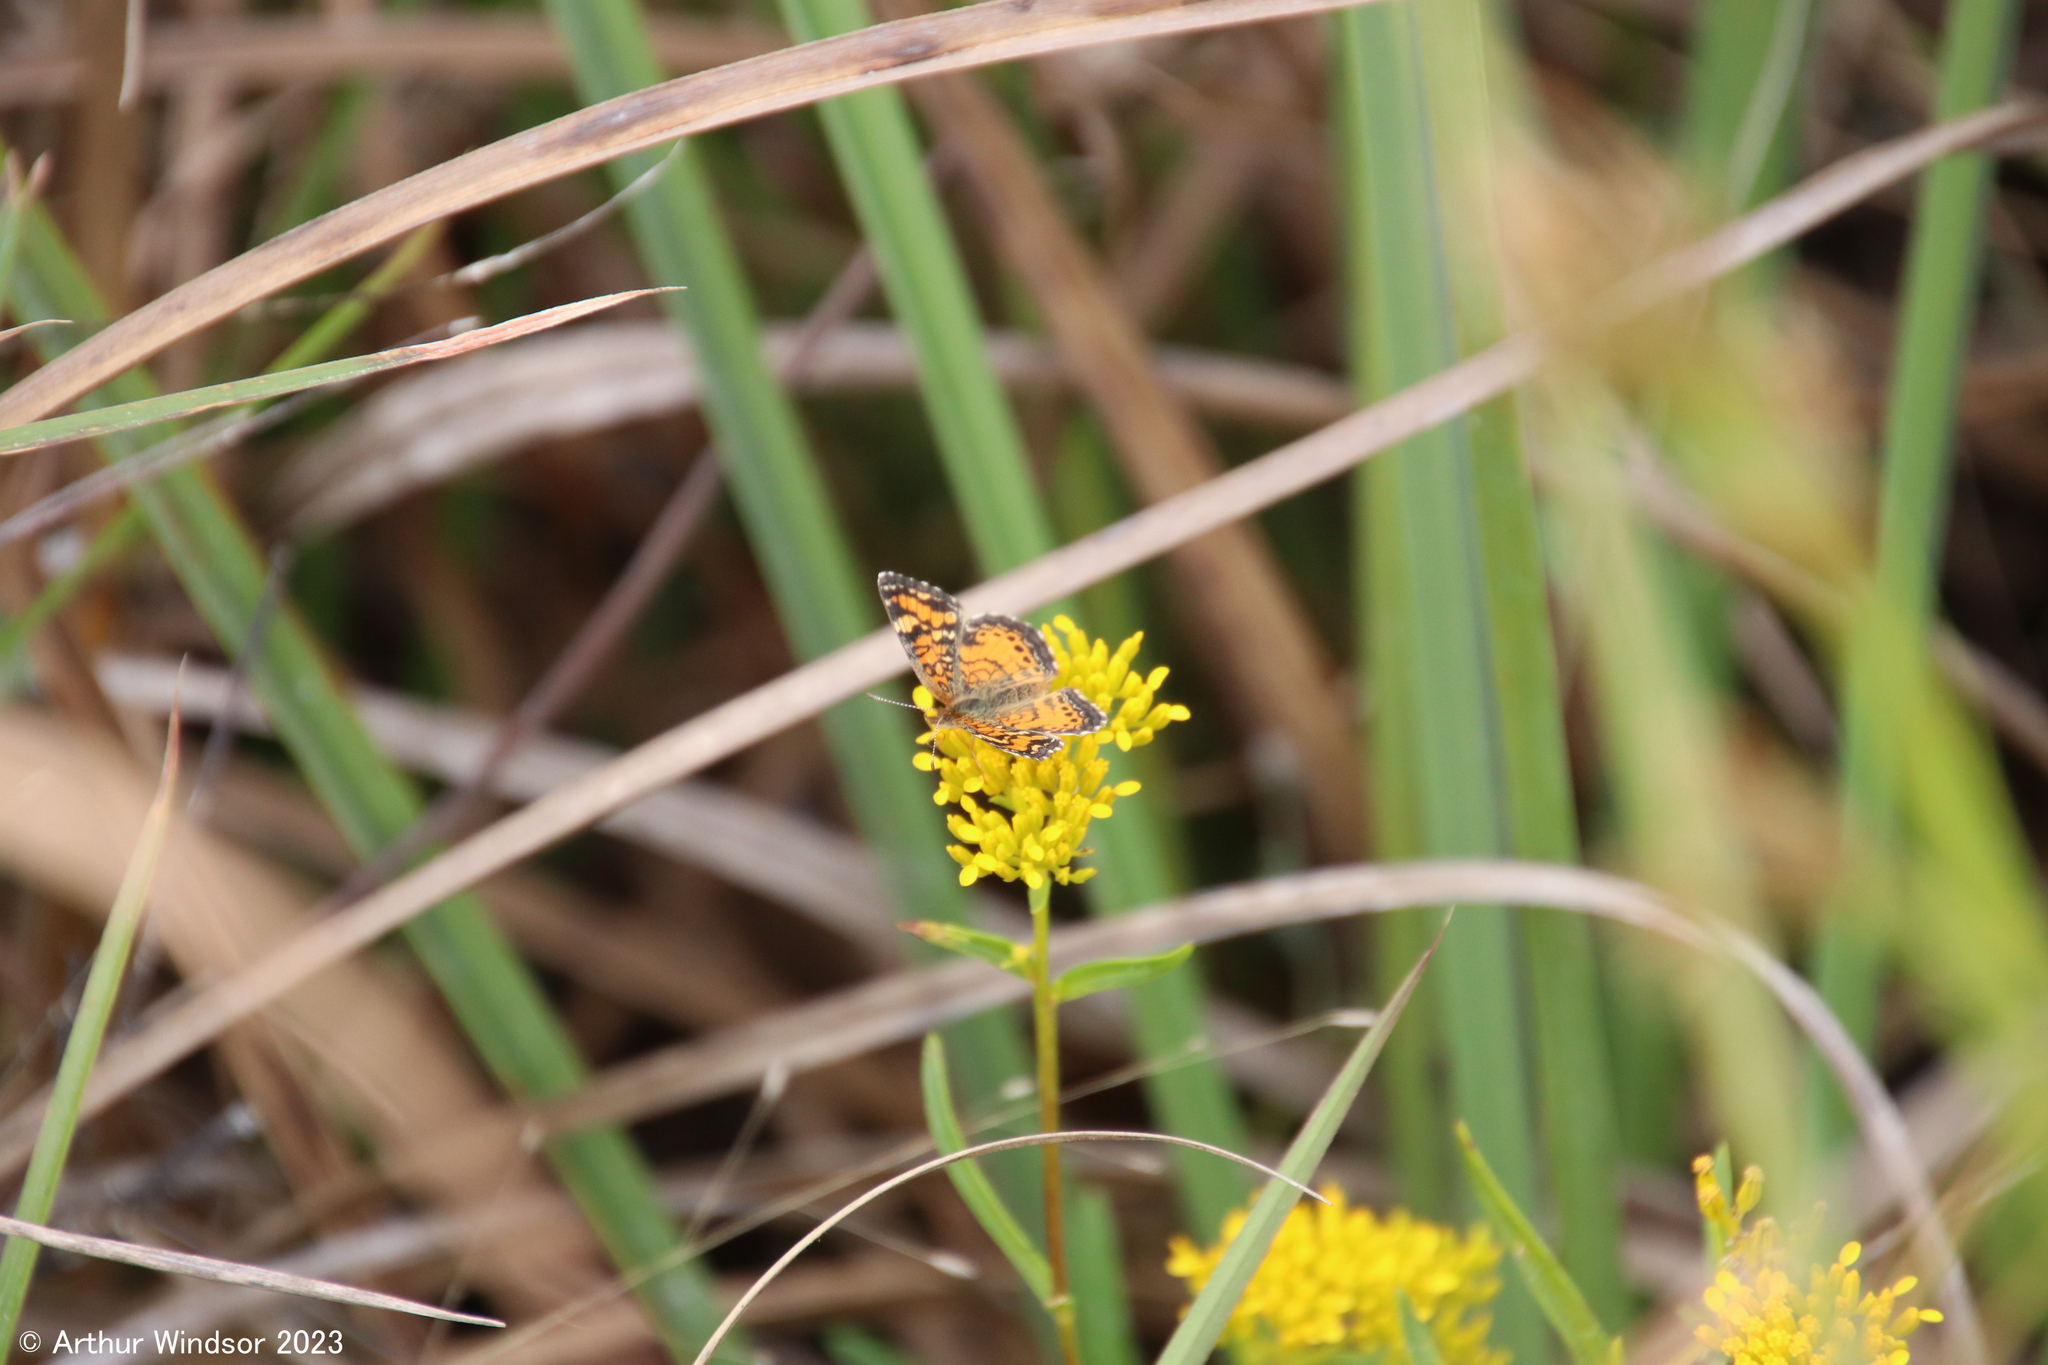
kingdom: Animalia
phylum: Arthropoda
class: Insecta
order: Lepidoptera
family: Nymphalidae
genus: Phyciodes
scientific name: Phyciodes phaon
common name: Phaon crescent
